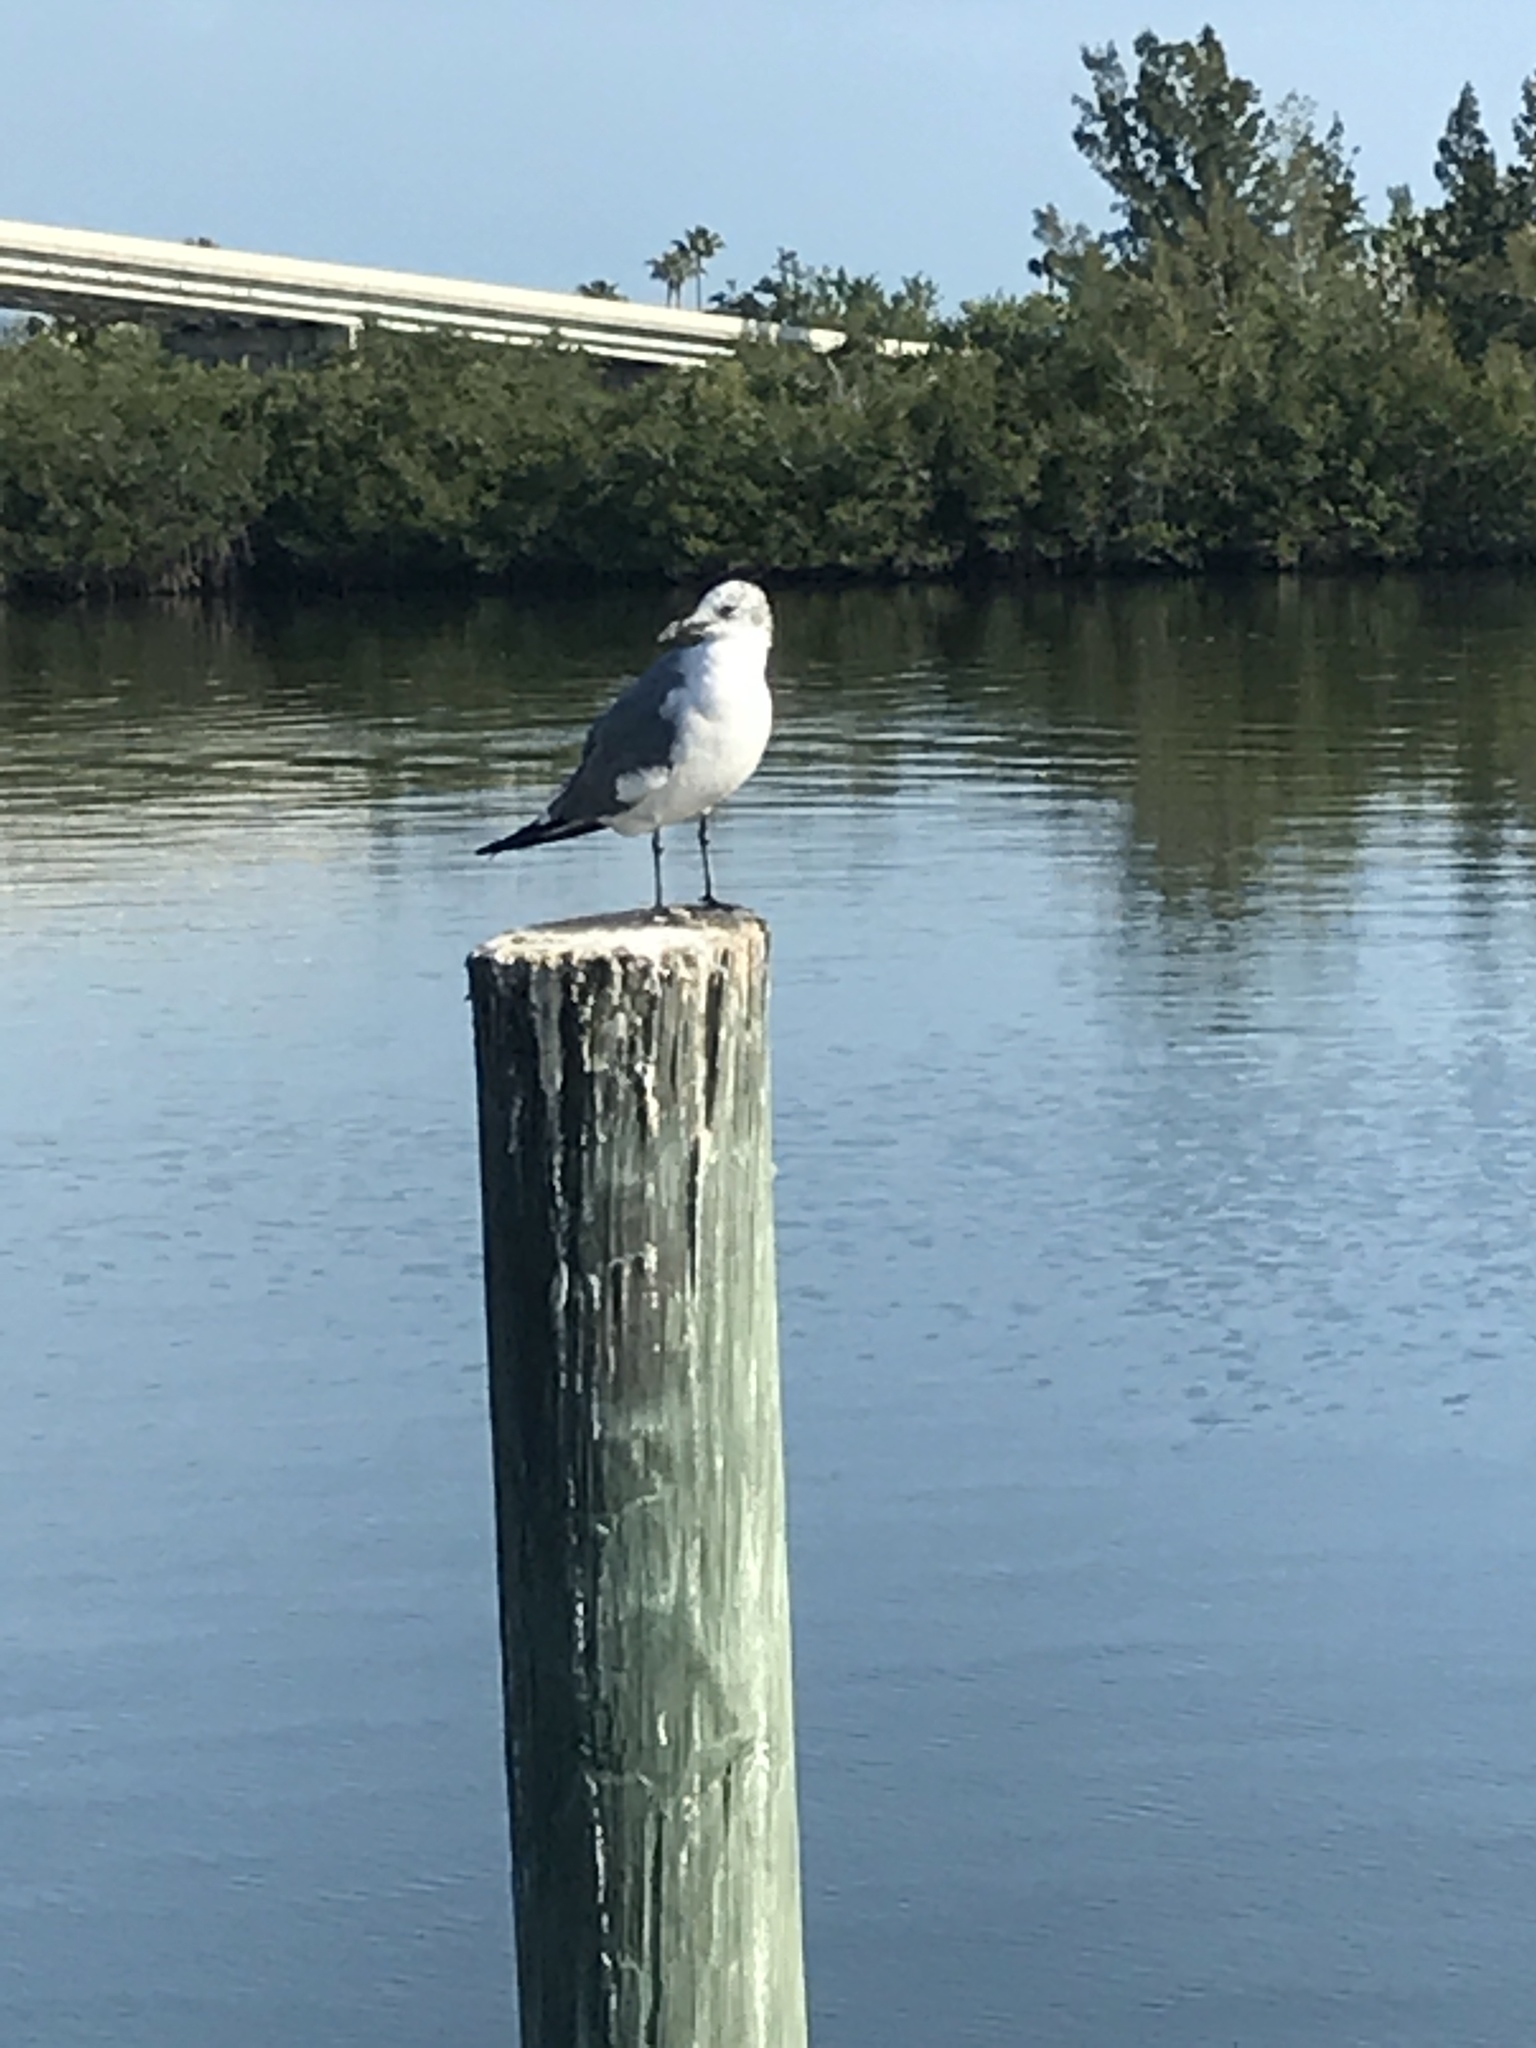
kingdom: Animalia
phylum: Chordata
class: Aves
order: Charadriiformes
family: Laridae
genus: Leucophaeus
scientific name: Leucophaeus atricilla
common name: Laughing gull
